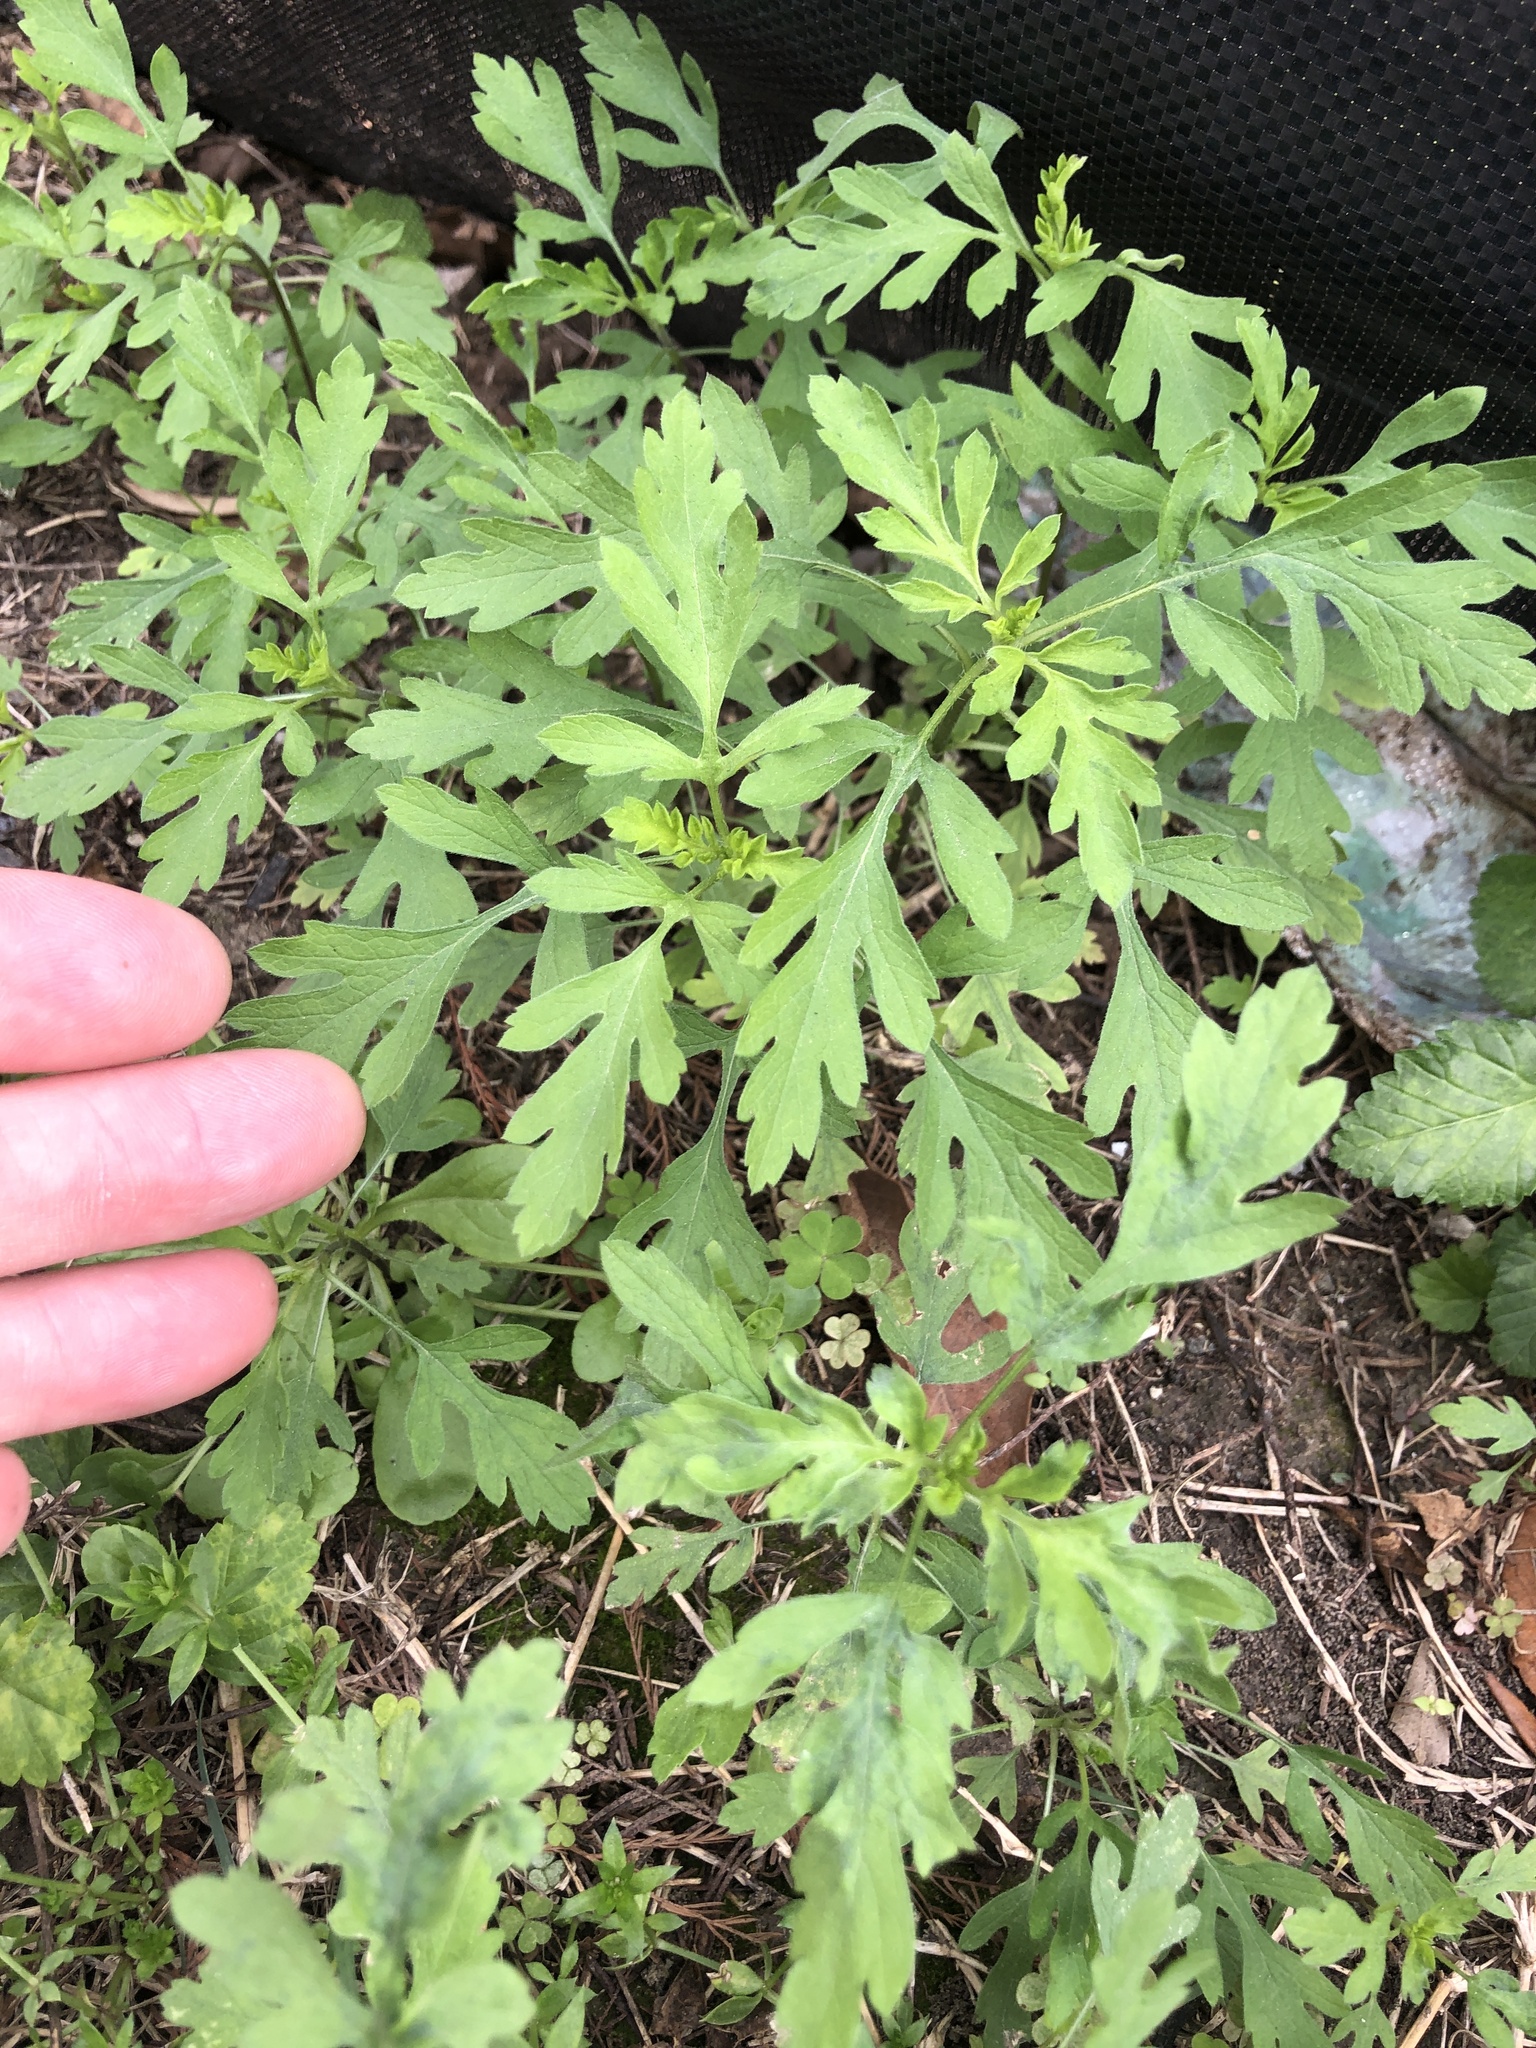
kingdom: Plantae
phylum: Tracheophyta
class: Magnoliopsida
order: Asterales
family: Asteraceae
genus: Ambrosia
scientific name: Ambrosia psilostachya
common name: Perennial ragweed
